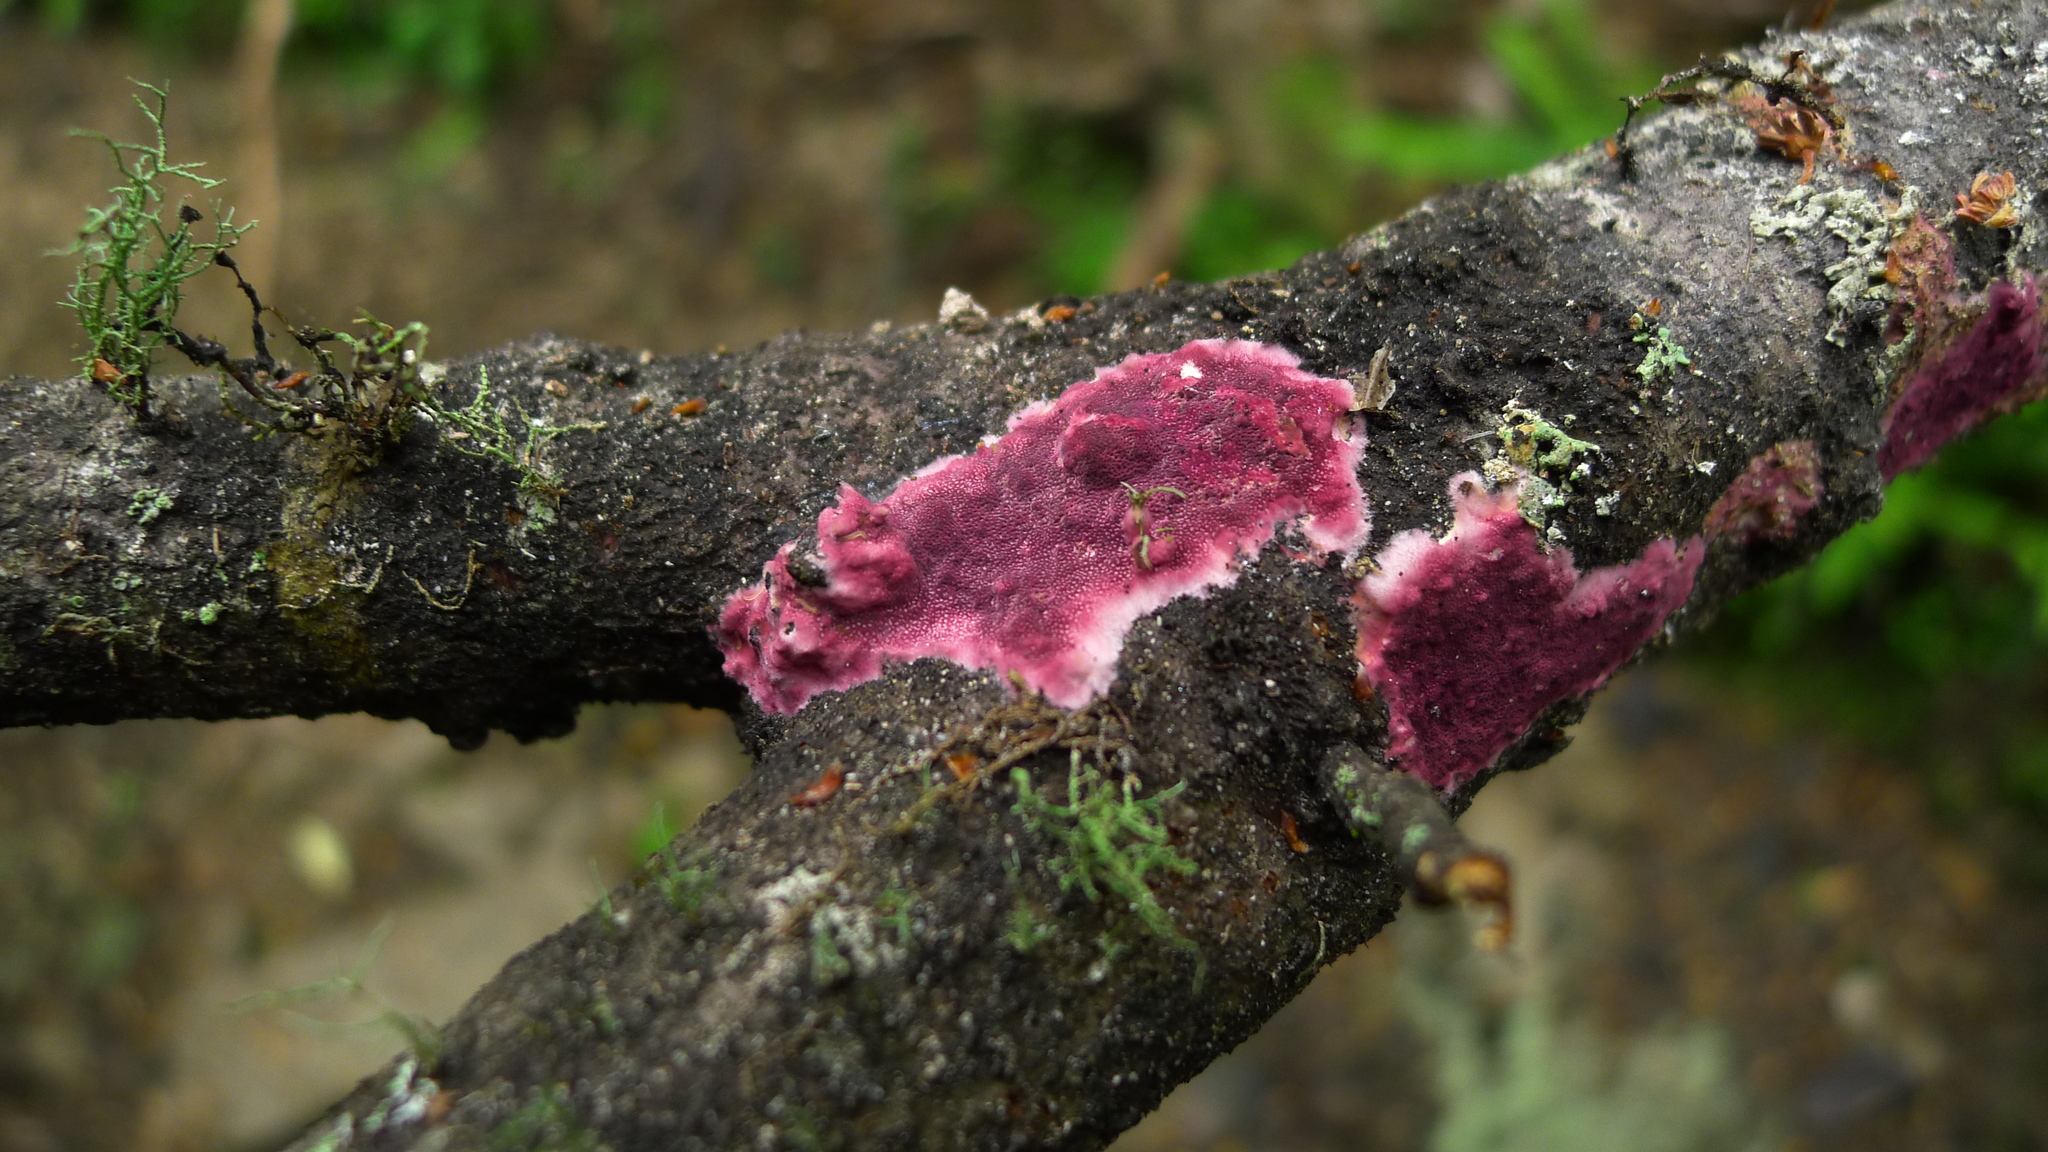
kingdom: Fungi
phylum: Basidiomycota
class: Agaricomycetes
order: Polyporales
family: Irpicaceae
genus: Byssomerulius
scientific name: Byssomerulius psittacinus
